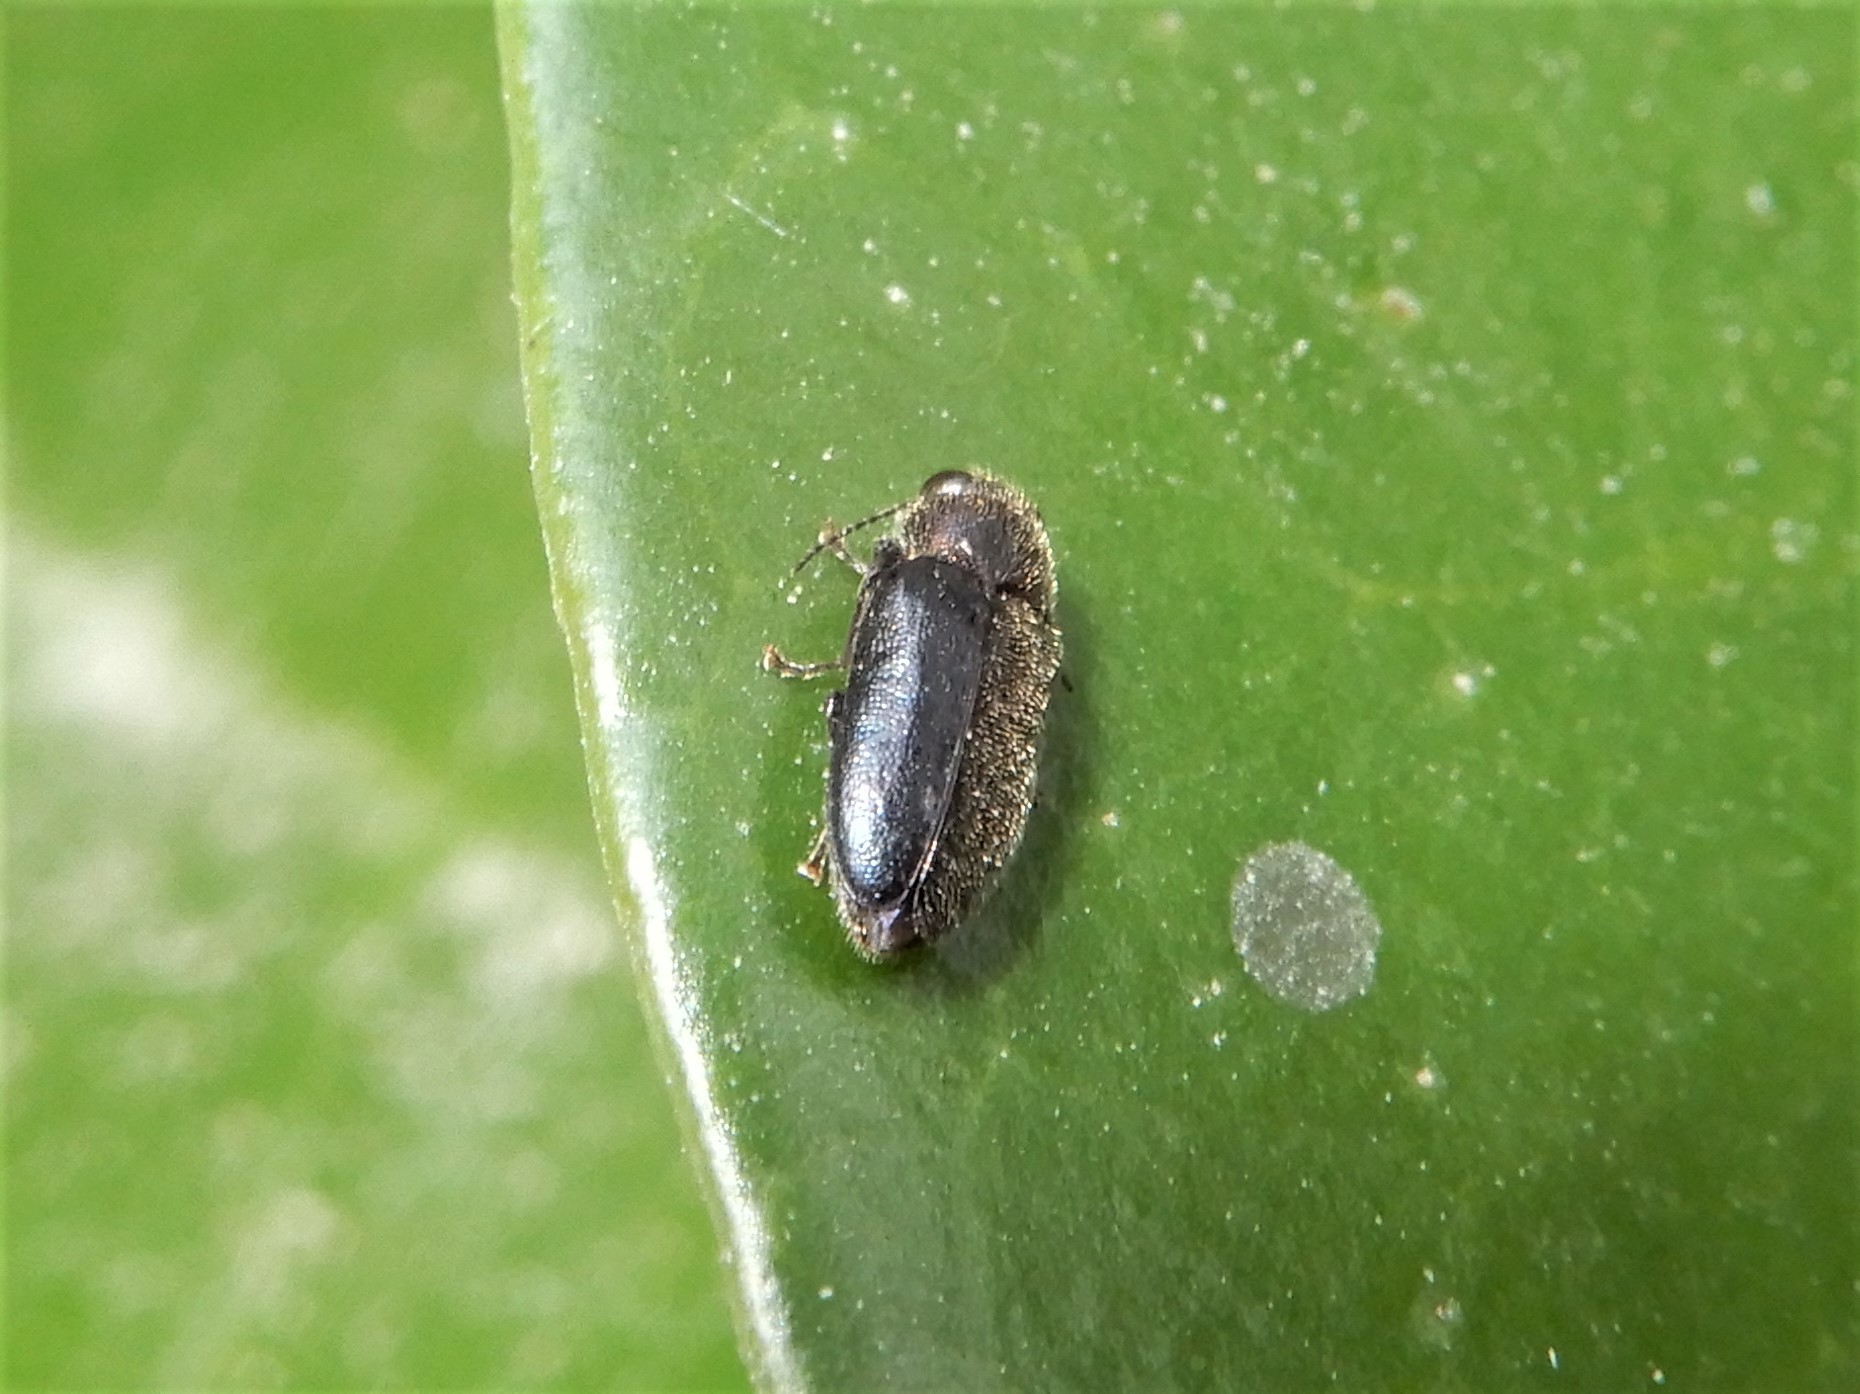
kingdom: Animalia
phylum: Arthropoda
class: Insecta
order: Coleoptera
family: Buprestidae
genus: Maoraxia
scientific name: Maoraxia eremita
